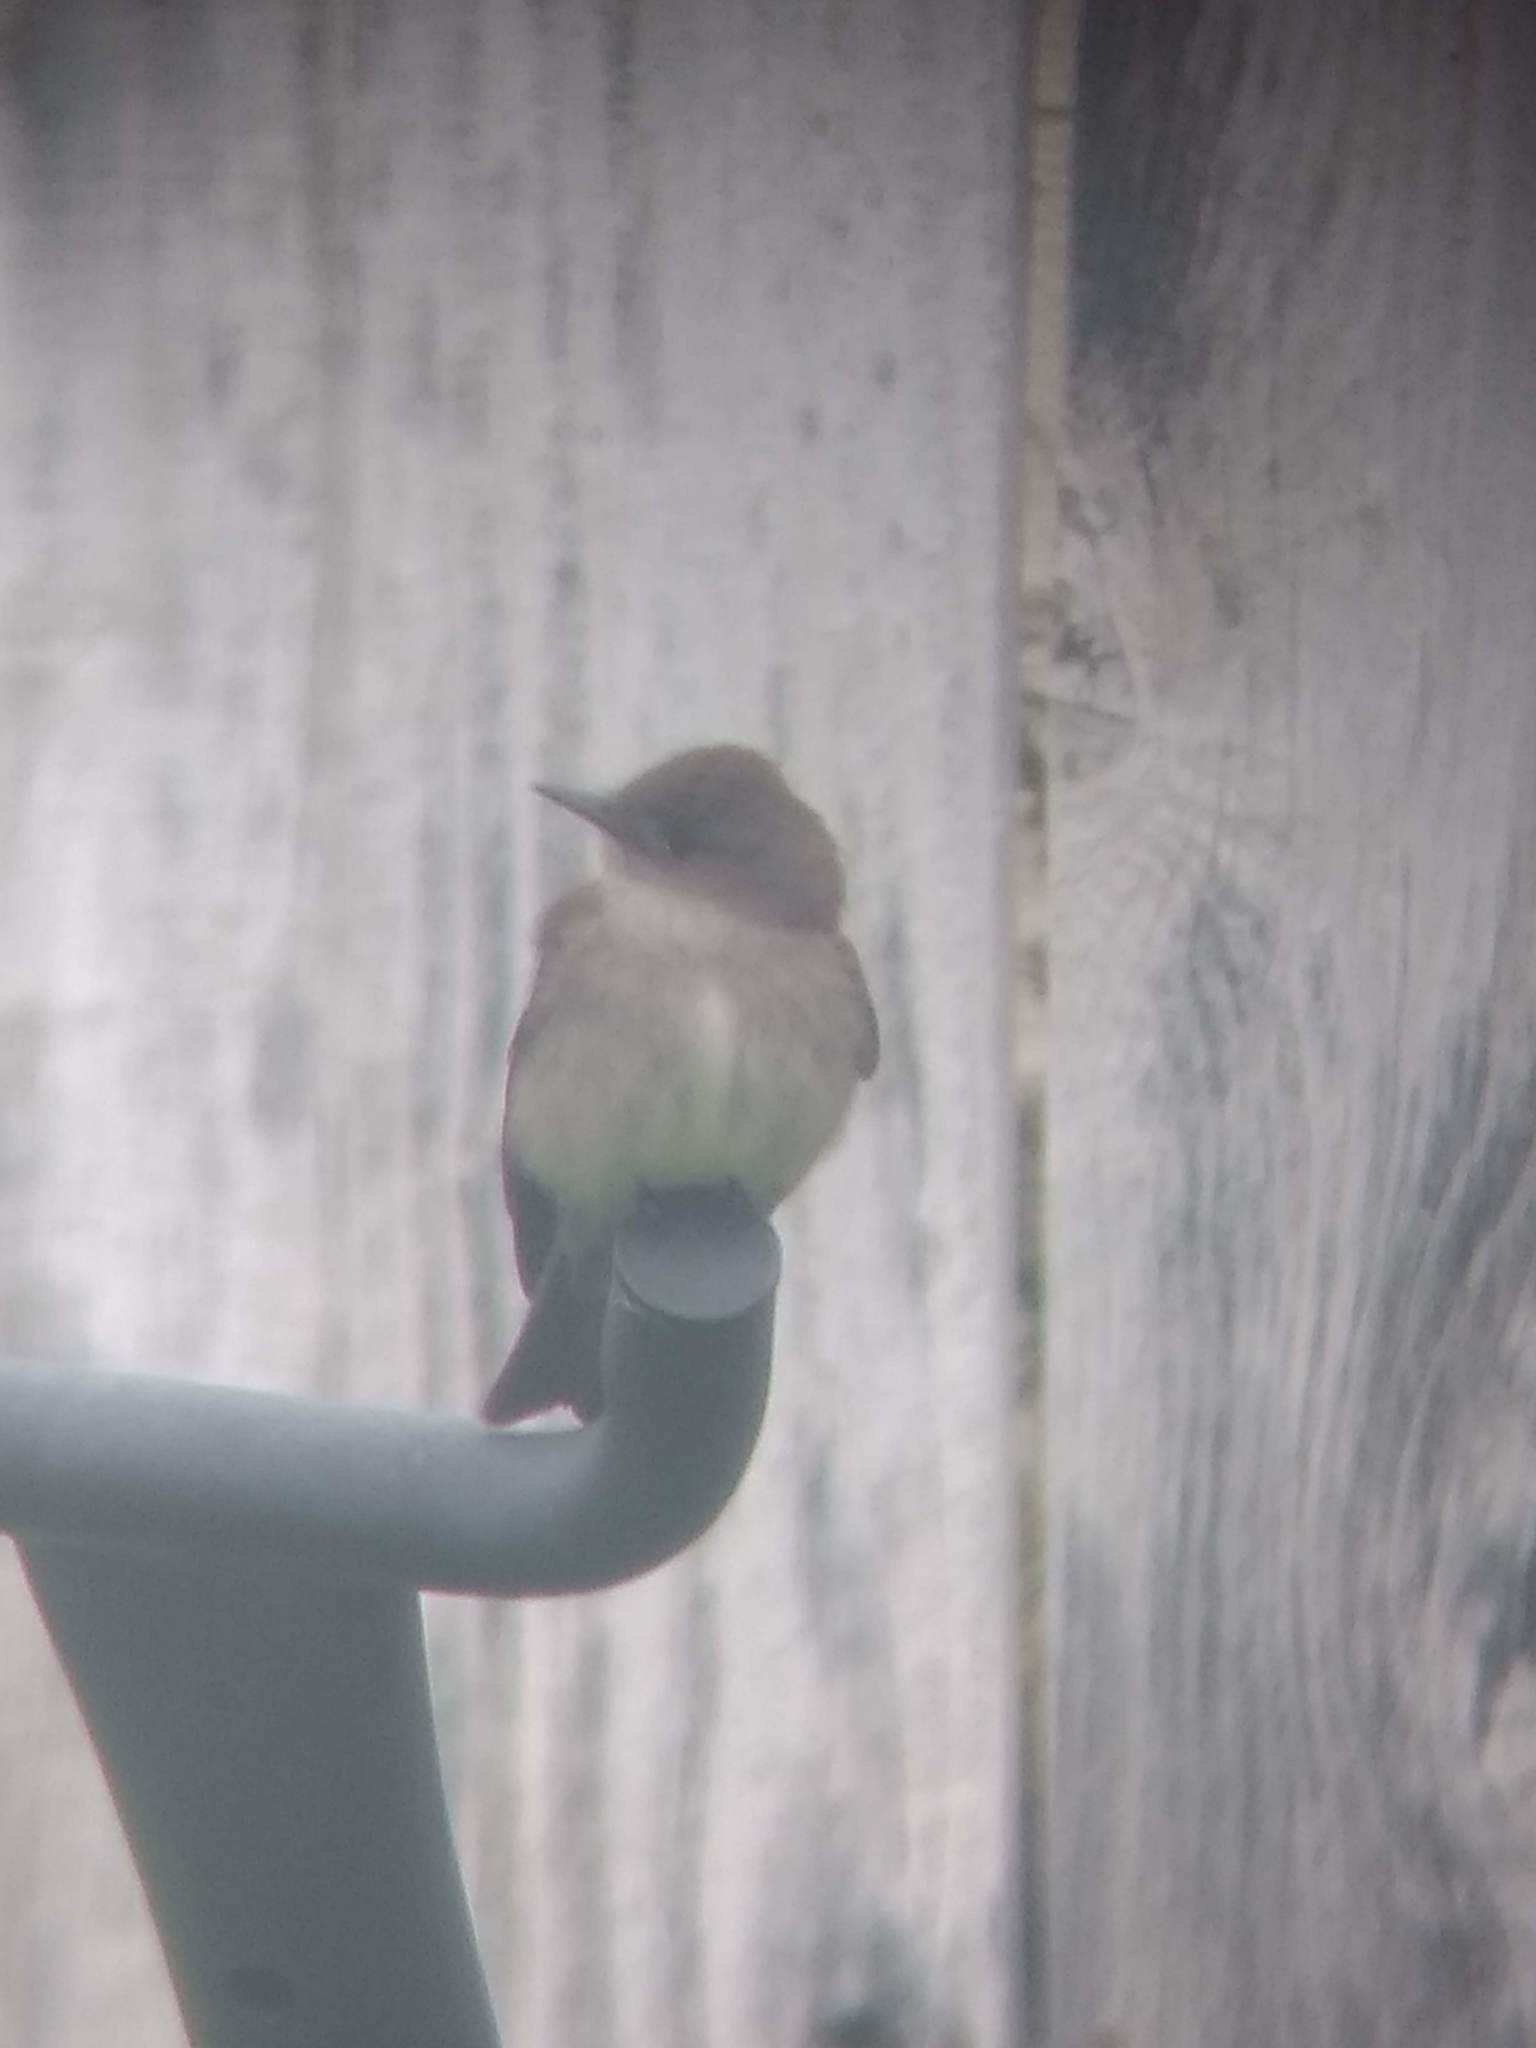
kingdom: Animalia
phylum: Chordata
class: Aves
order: Passeriformes
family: Tyrannidae
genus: Contopus
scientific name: Contopus sordidulus
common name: Western wood-pewee
